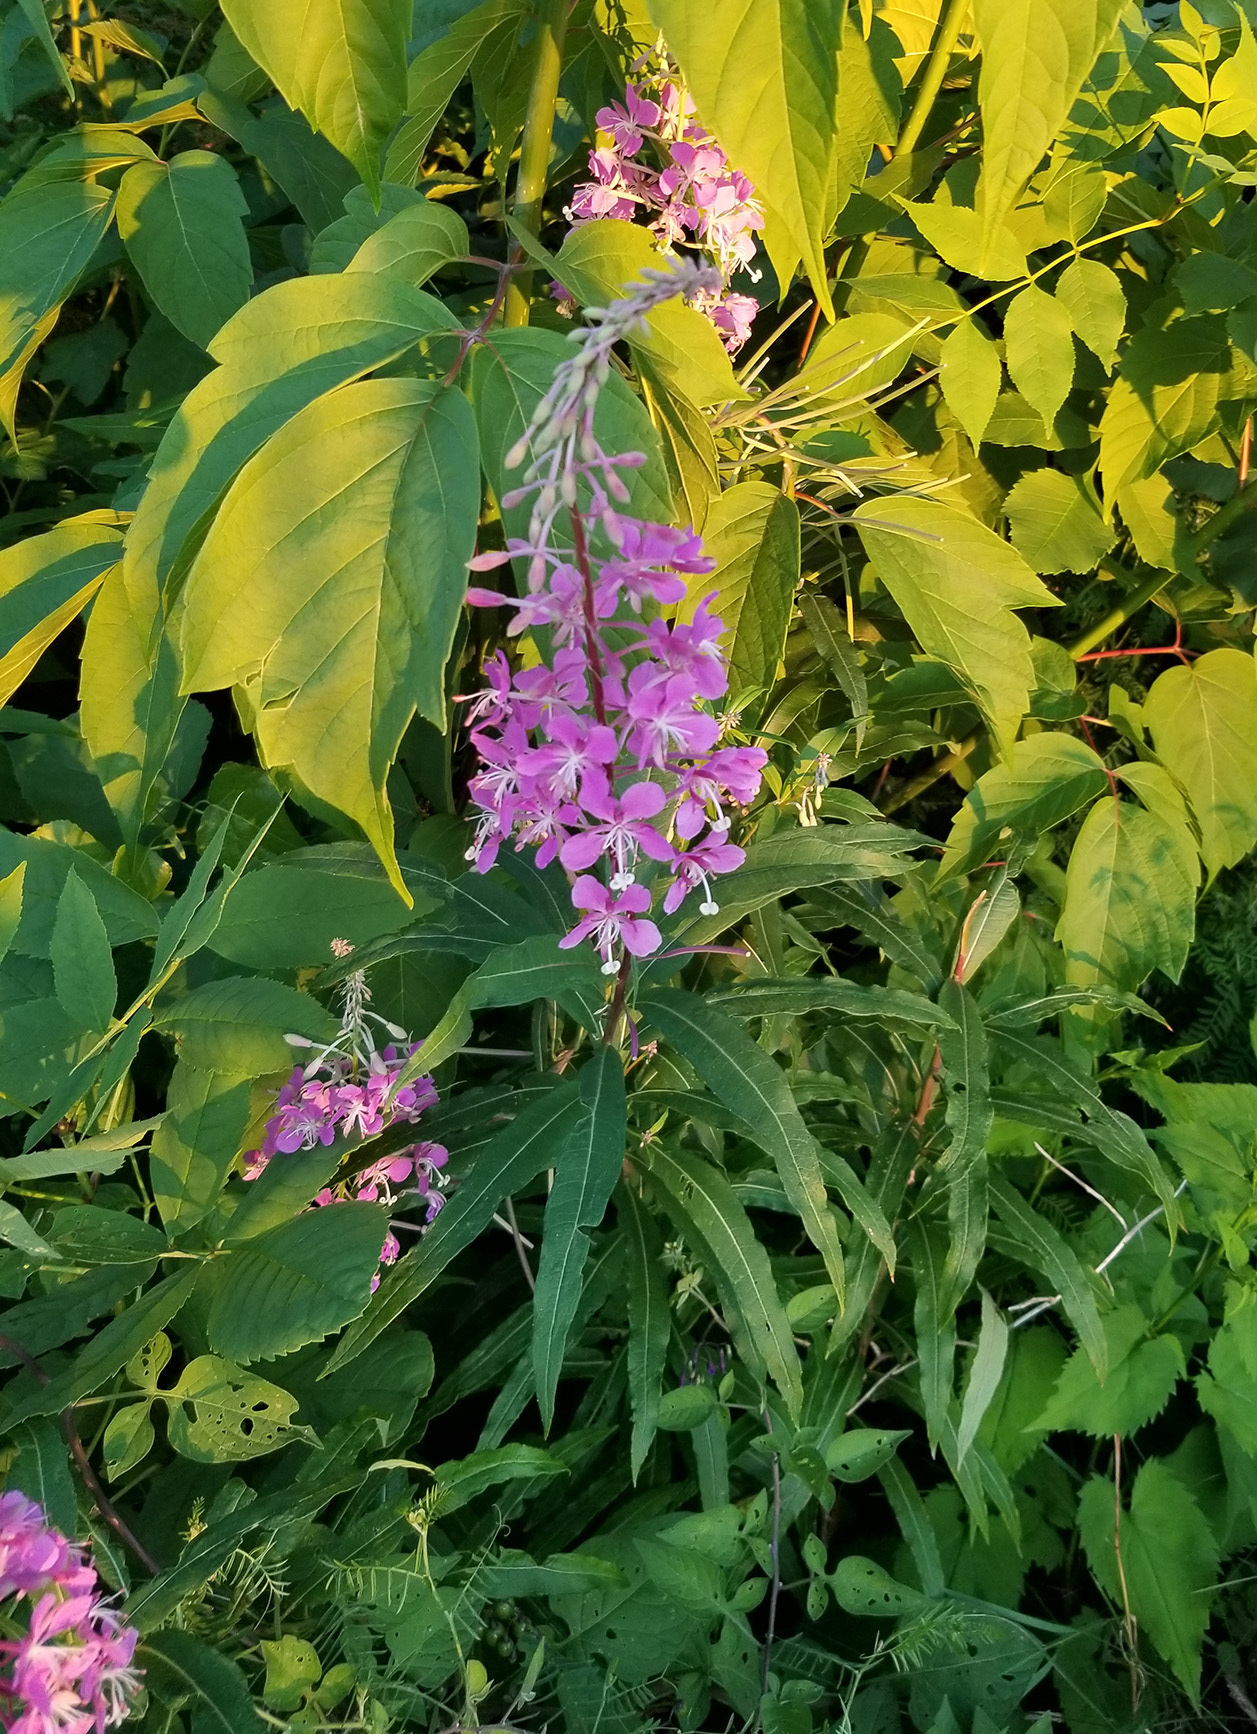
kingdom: Plantae
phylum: Tracheophyta
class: Magnoliopsida
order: Myrtales
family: Onagraceae
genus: Chamaenerion
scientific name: Chamaenerion angustifolium
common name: Fireweed
